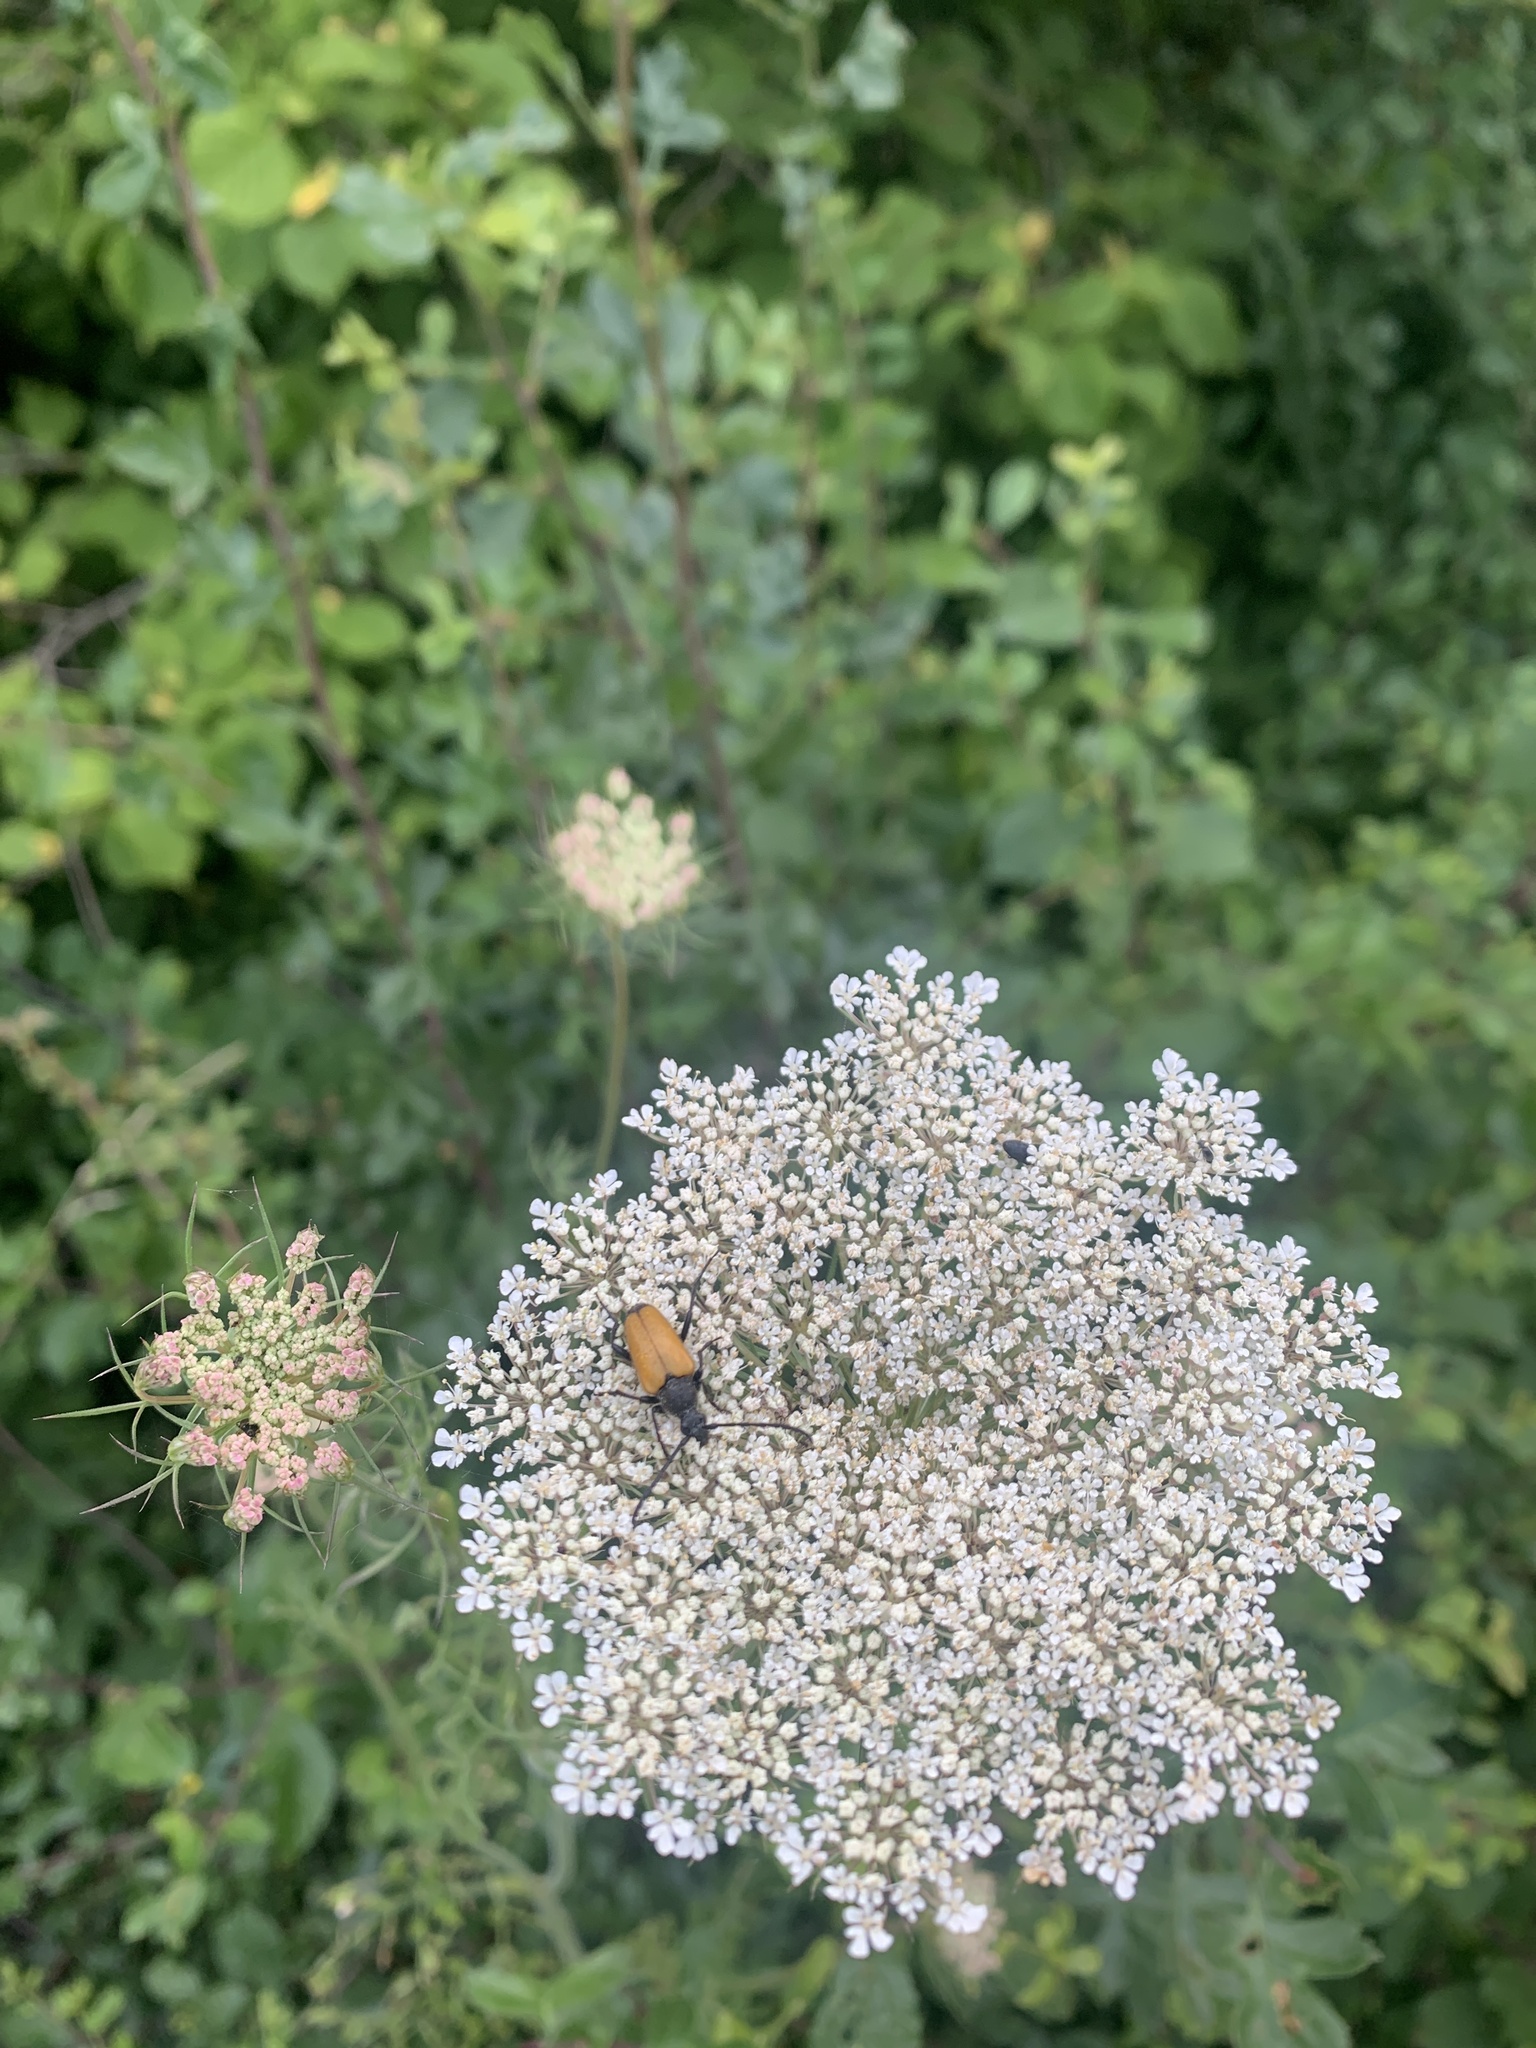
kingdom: Animalia
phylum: Arthropoda
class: Insecta
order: Coleoptera
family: Cerambycidae
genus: Paracorymbia
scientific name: Paracorymbia fulva
